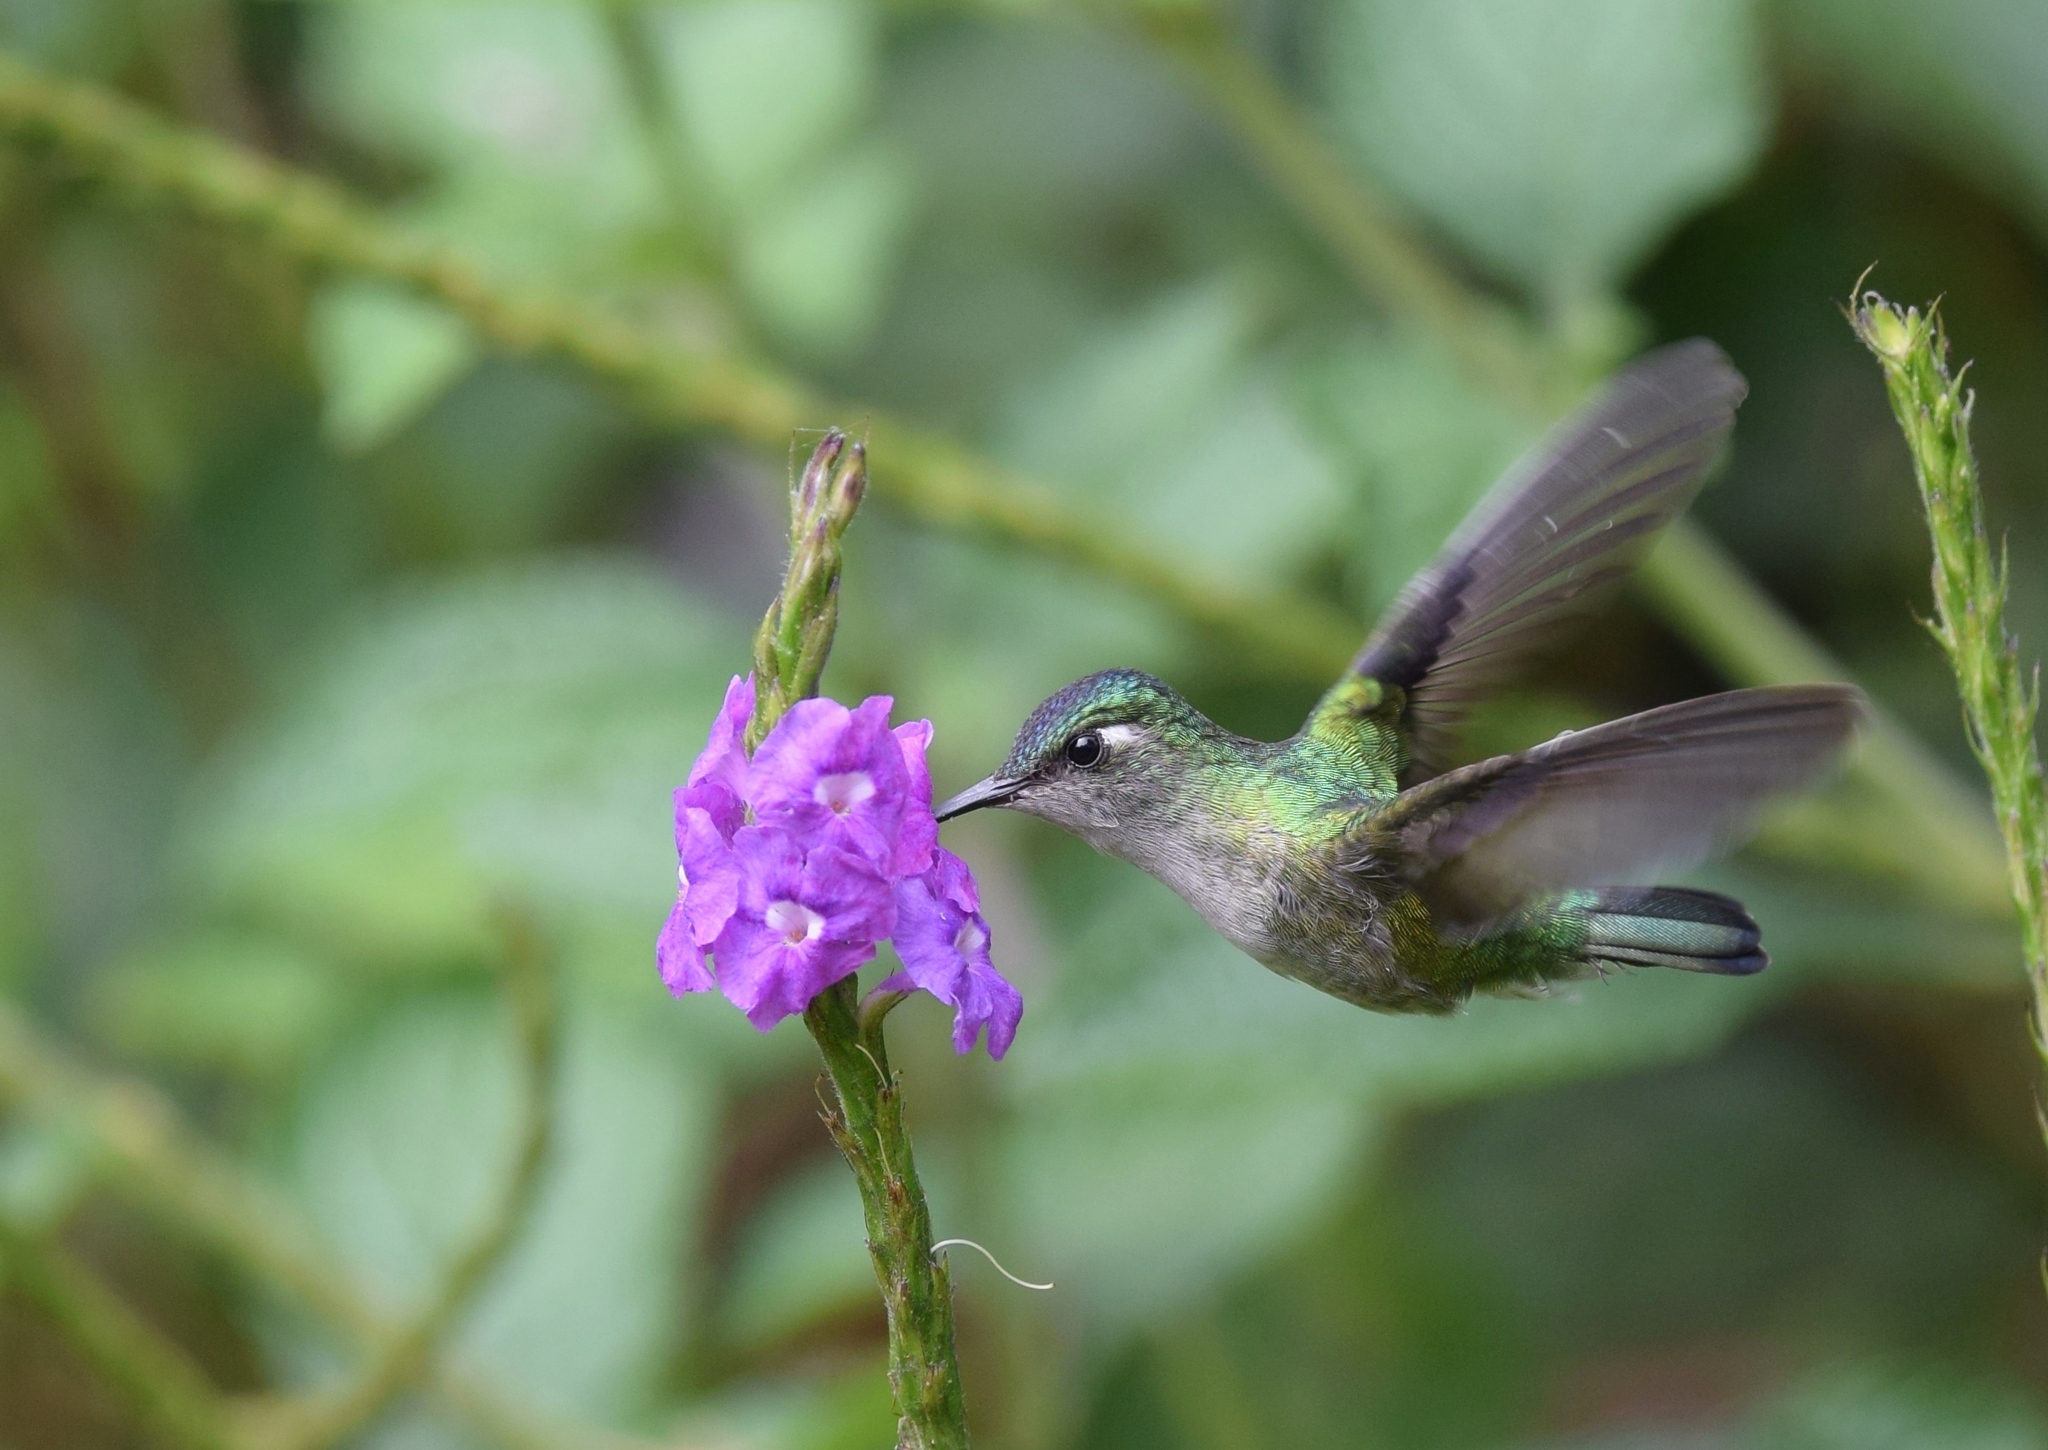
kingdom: Animalia
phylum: Chordata
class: Aves
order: Apodiformes
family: Trochilidae
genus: Klais
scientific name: Klais guimeti
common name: Violet-headed hummingbird
